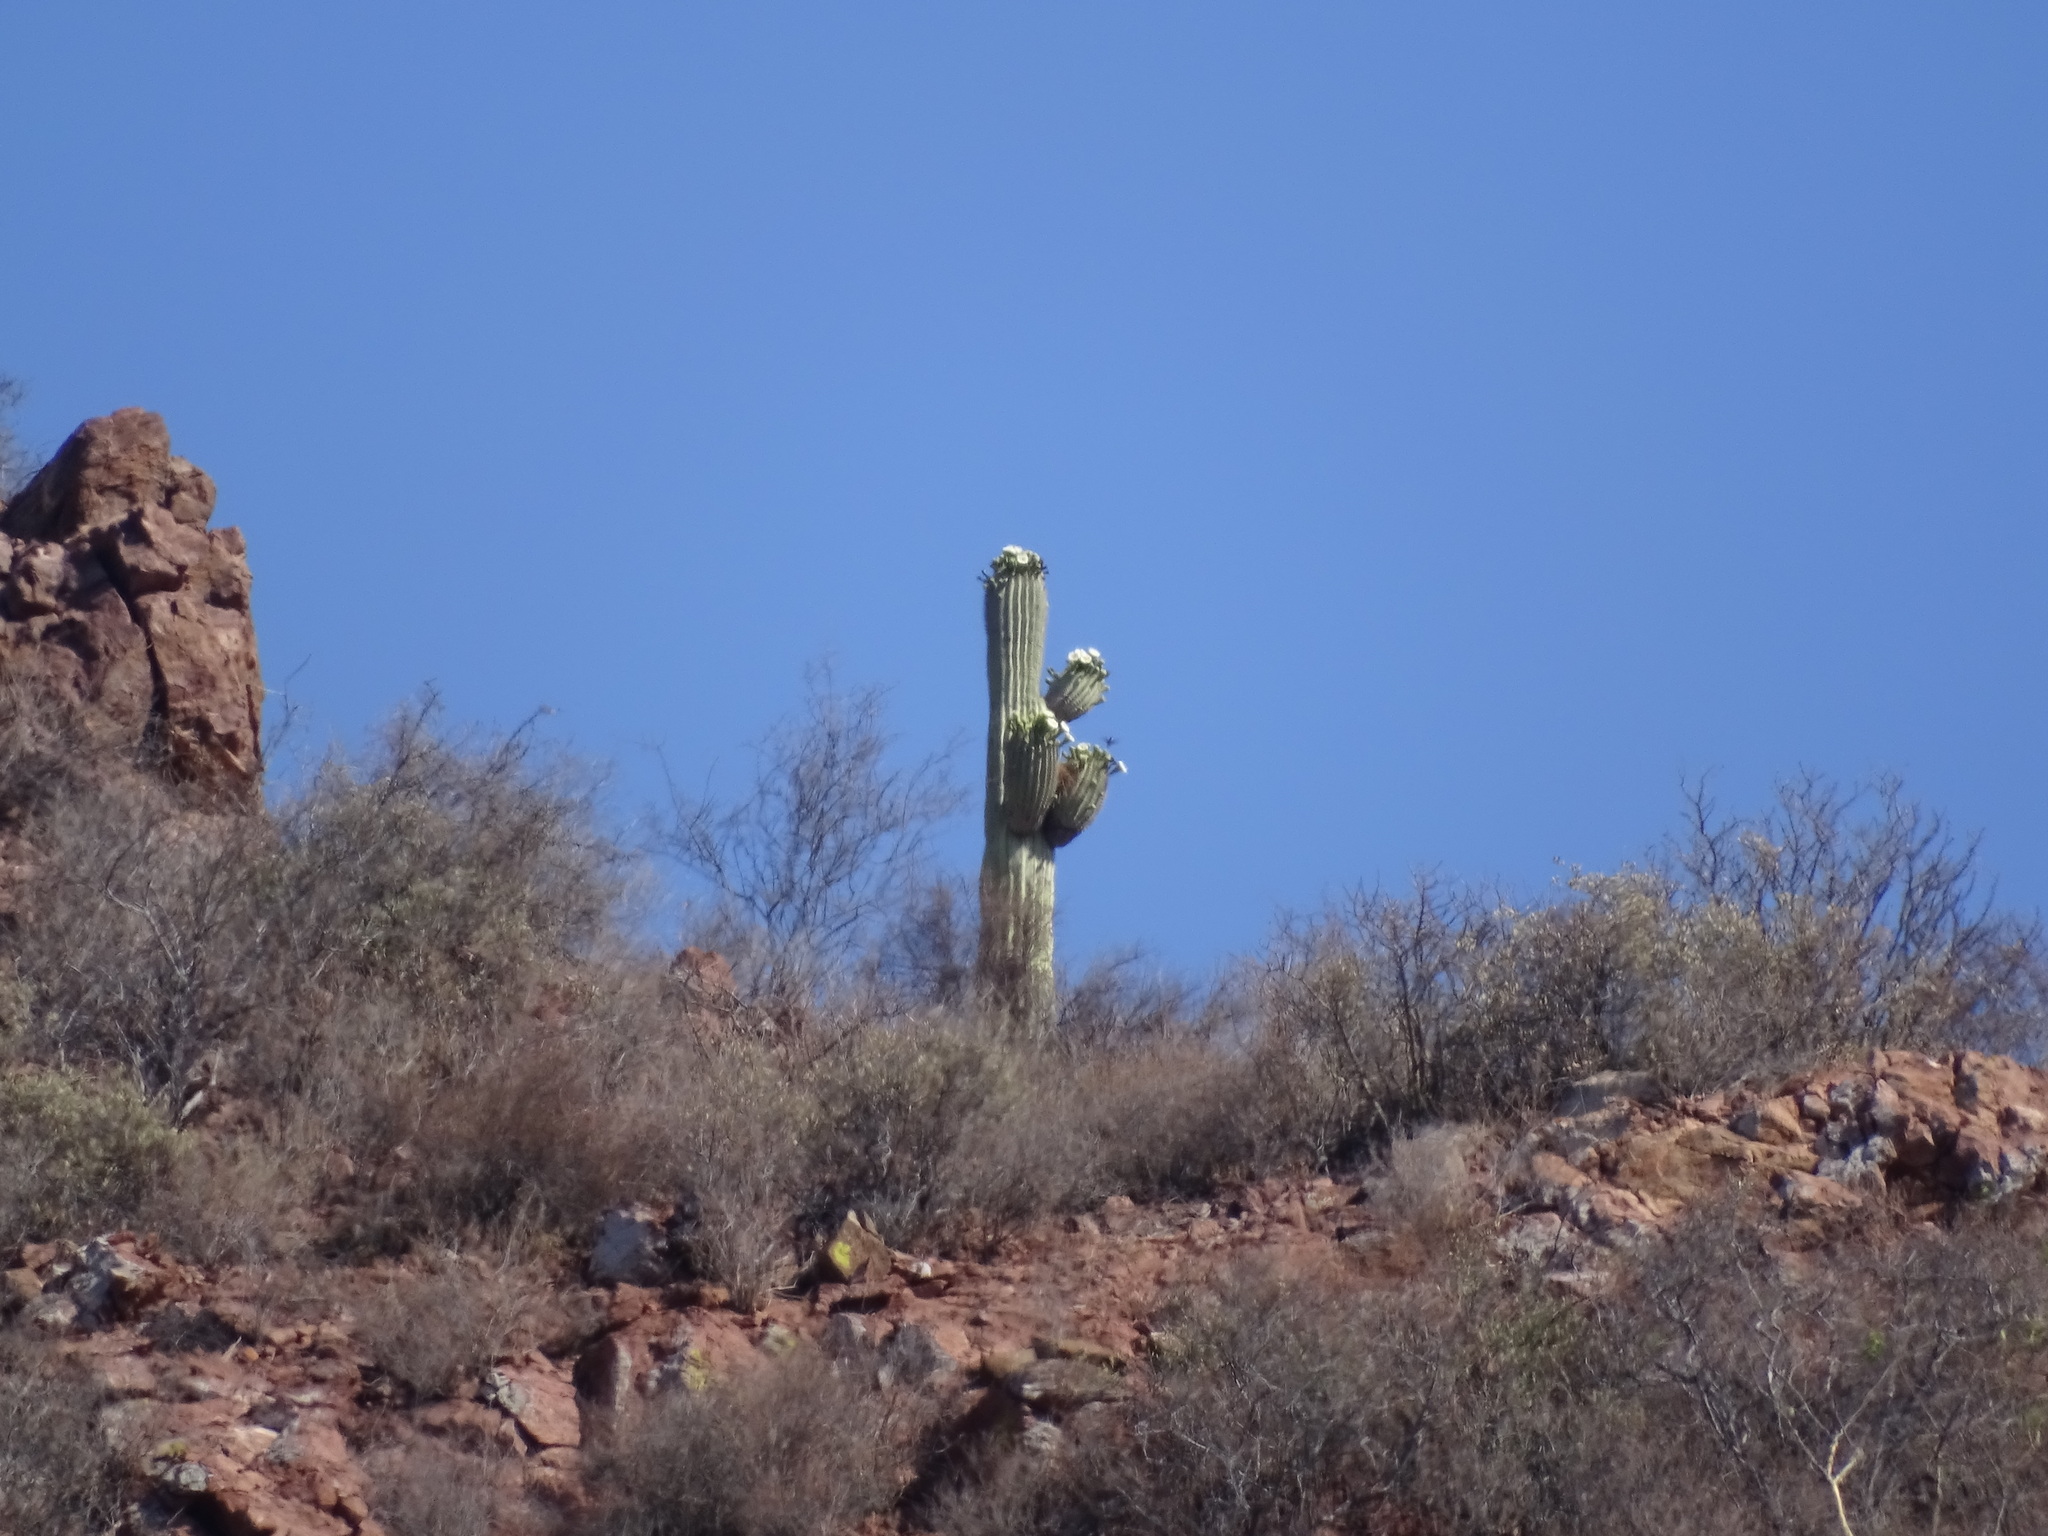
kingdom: Plantae
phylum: Tracheophyta
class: Magnoliopsida
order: Caryophyllales
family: Cactaceae
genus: Carnegiea
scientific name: Carnegiea gigantea
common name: Saguaro
